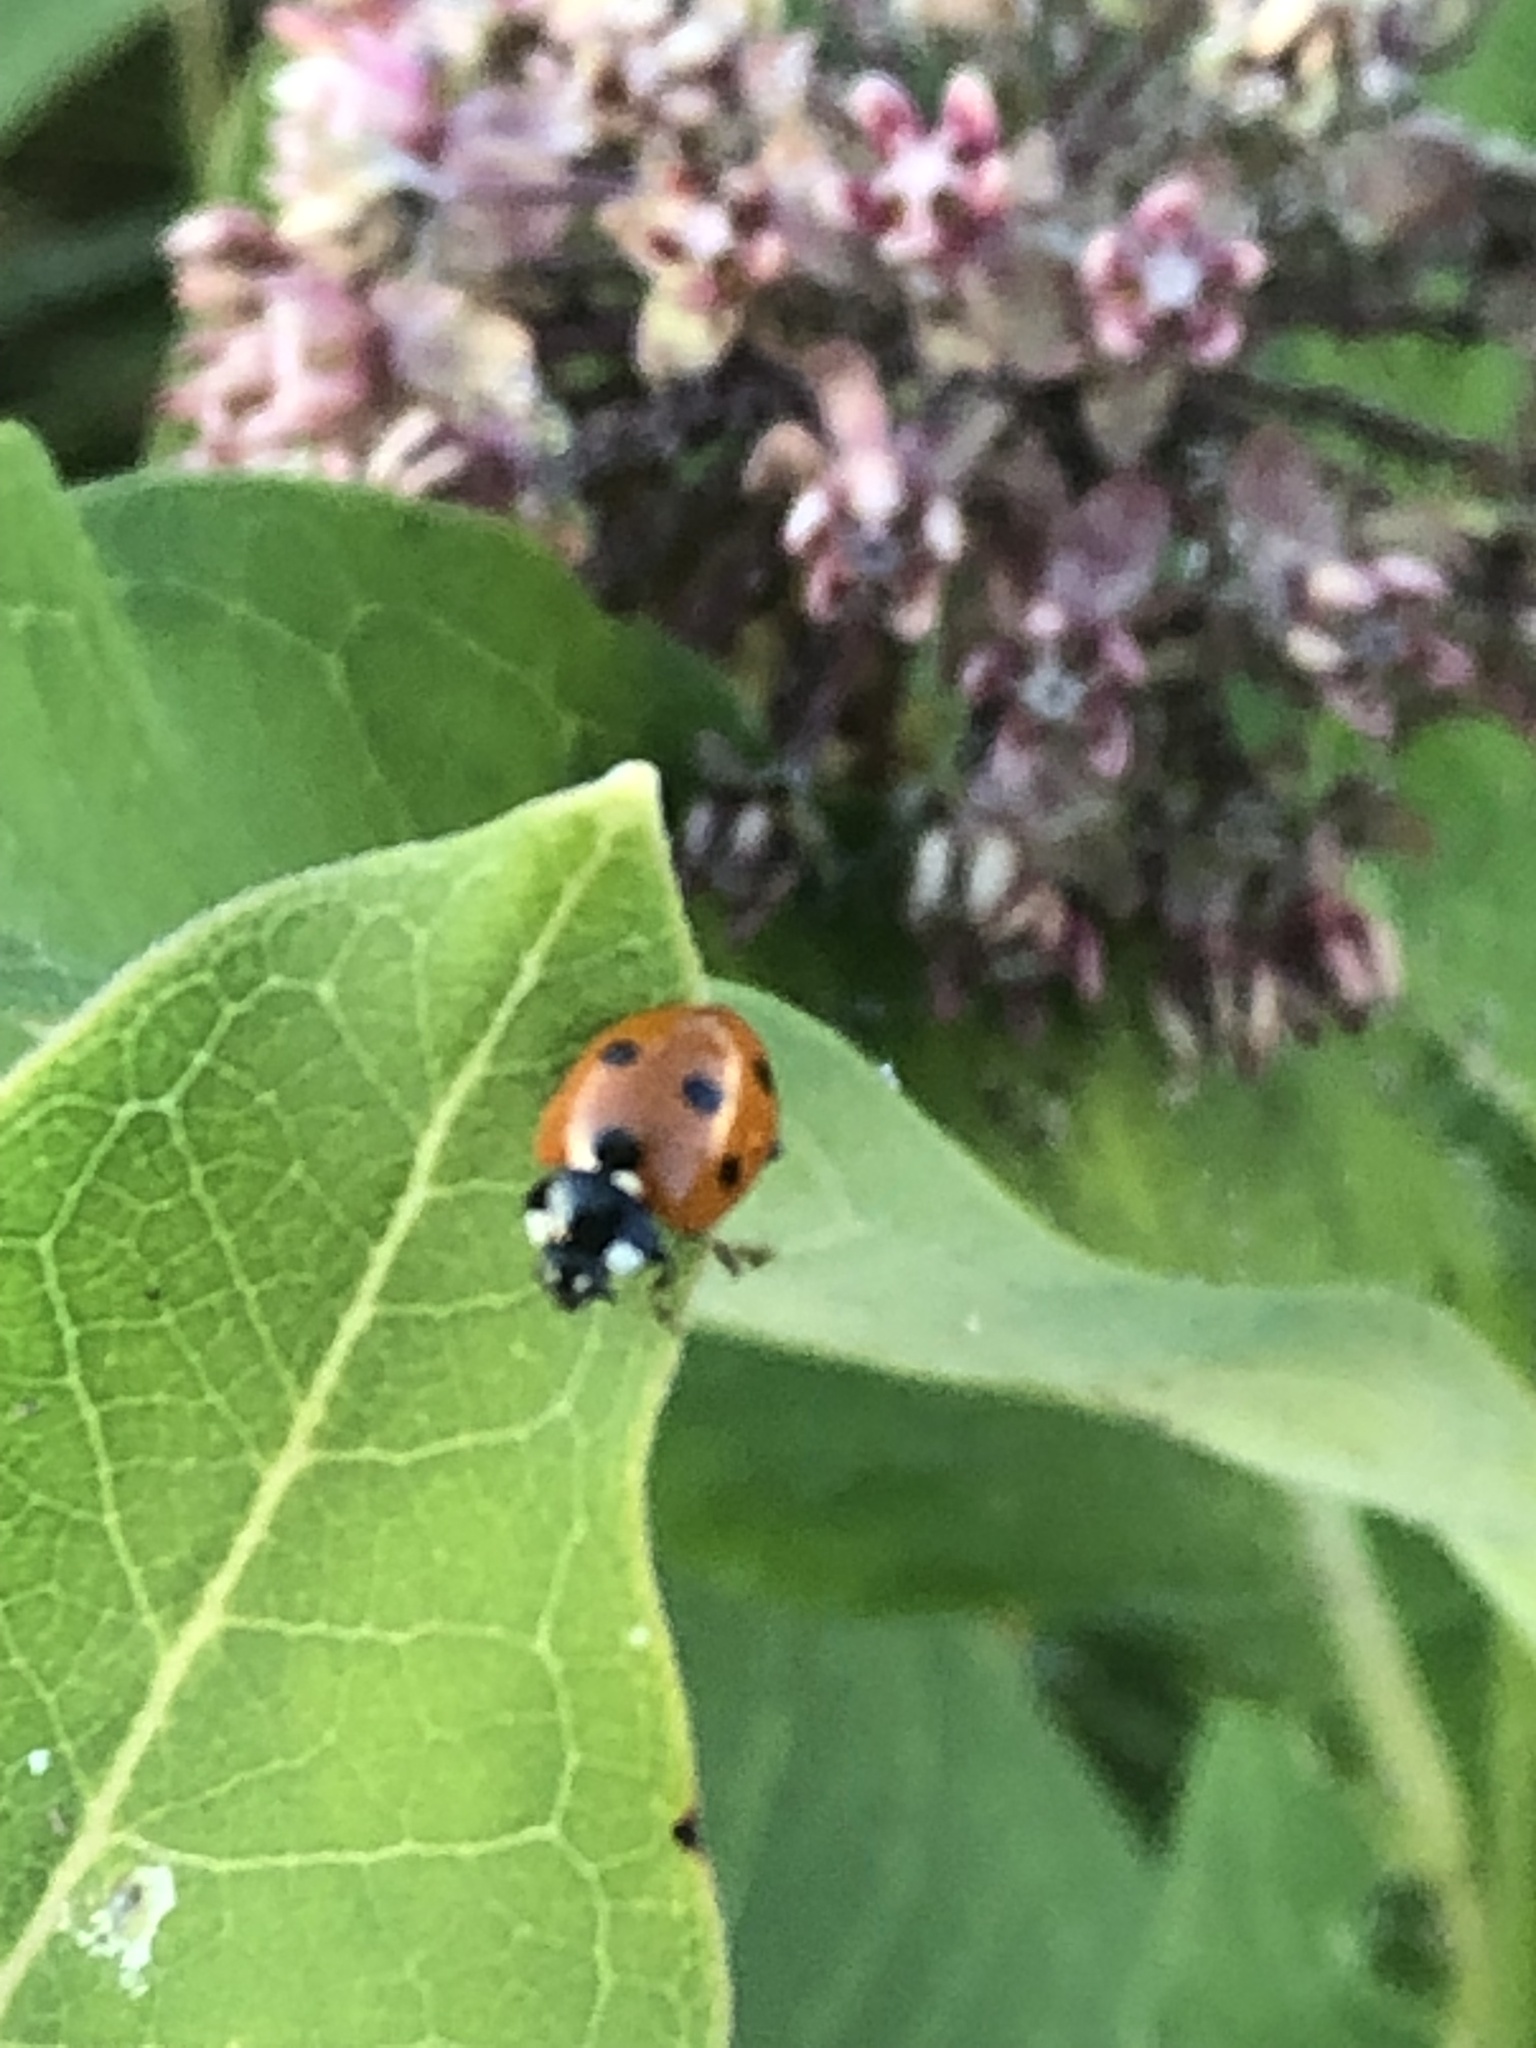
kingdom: Animalia
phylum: Arthropoda
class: Insecta
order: Coleoptera
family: Coccinellidae
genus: Coccinella
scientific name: Coccinella septempunctata
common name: Sevenspotted lady beetle
